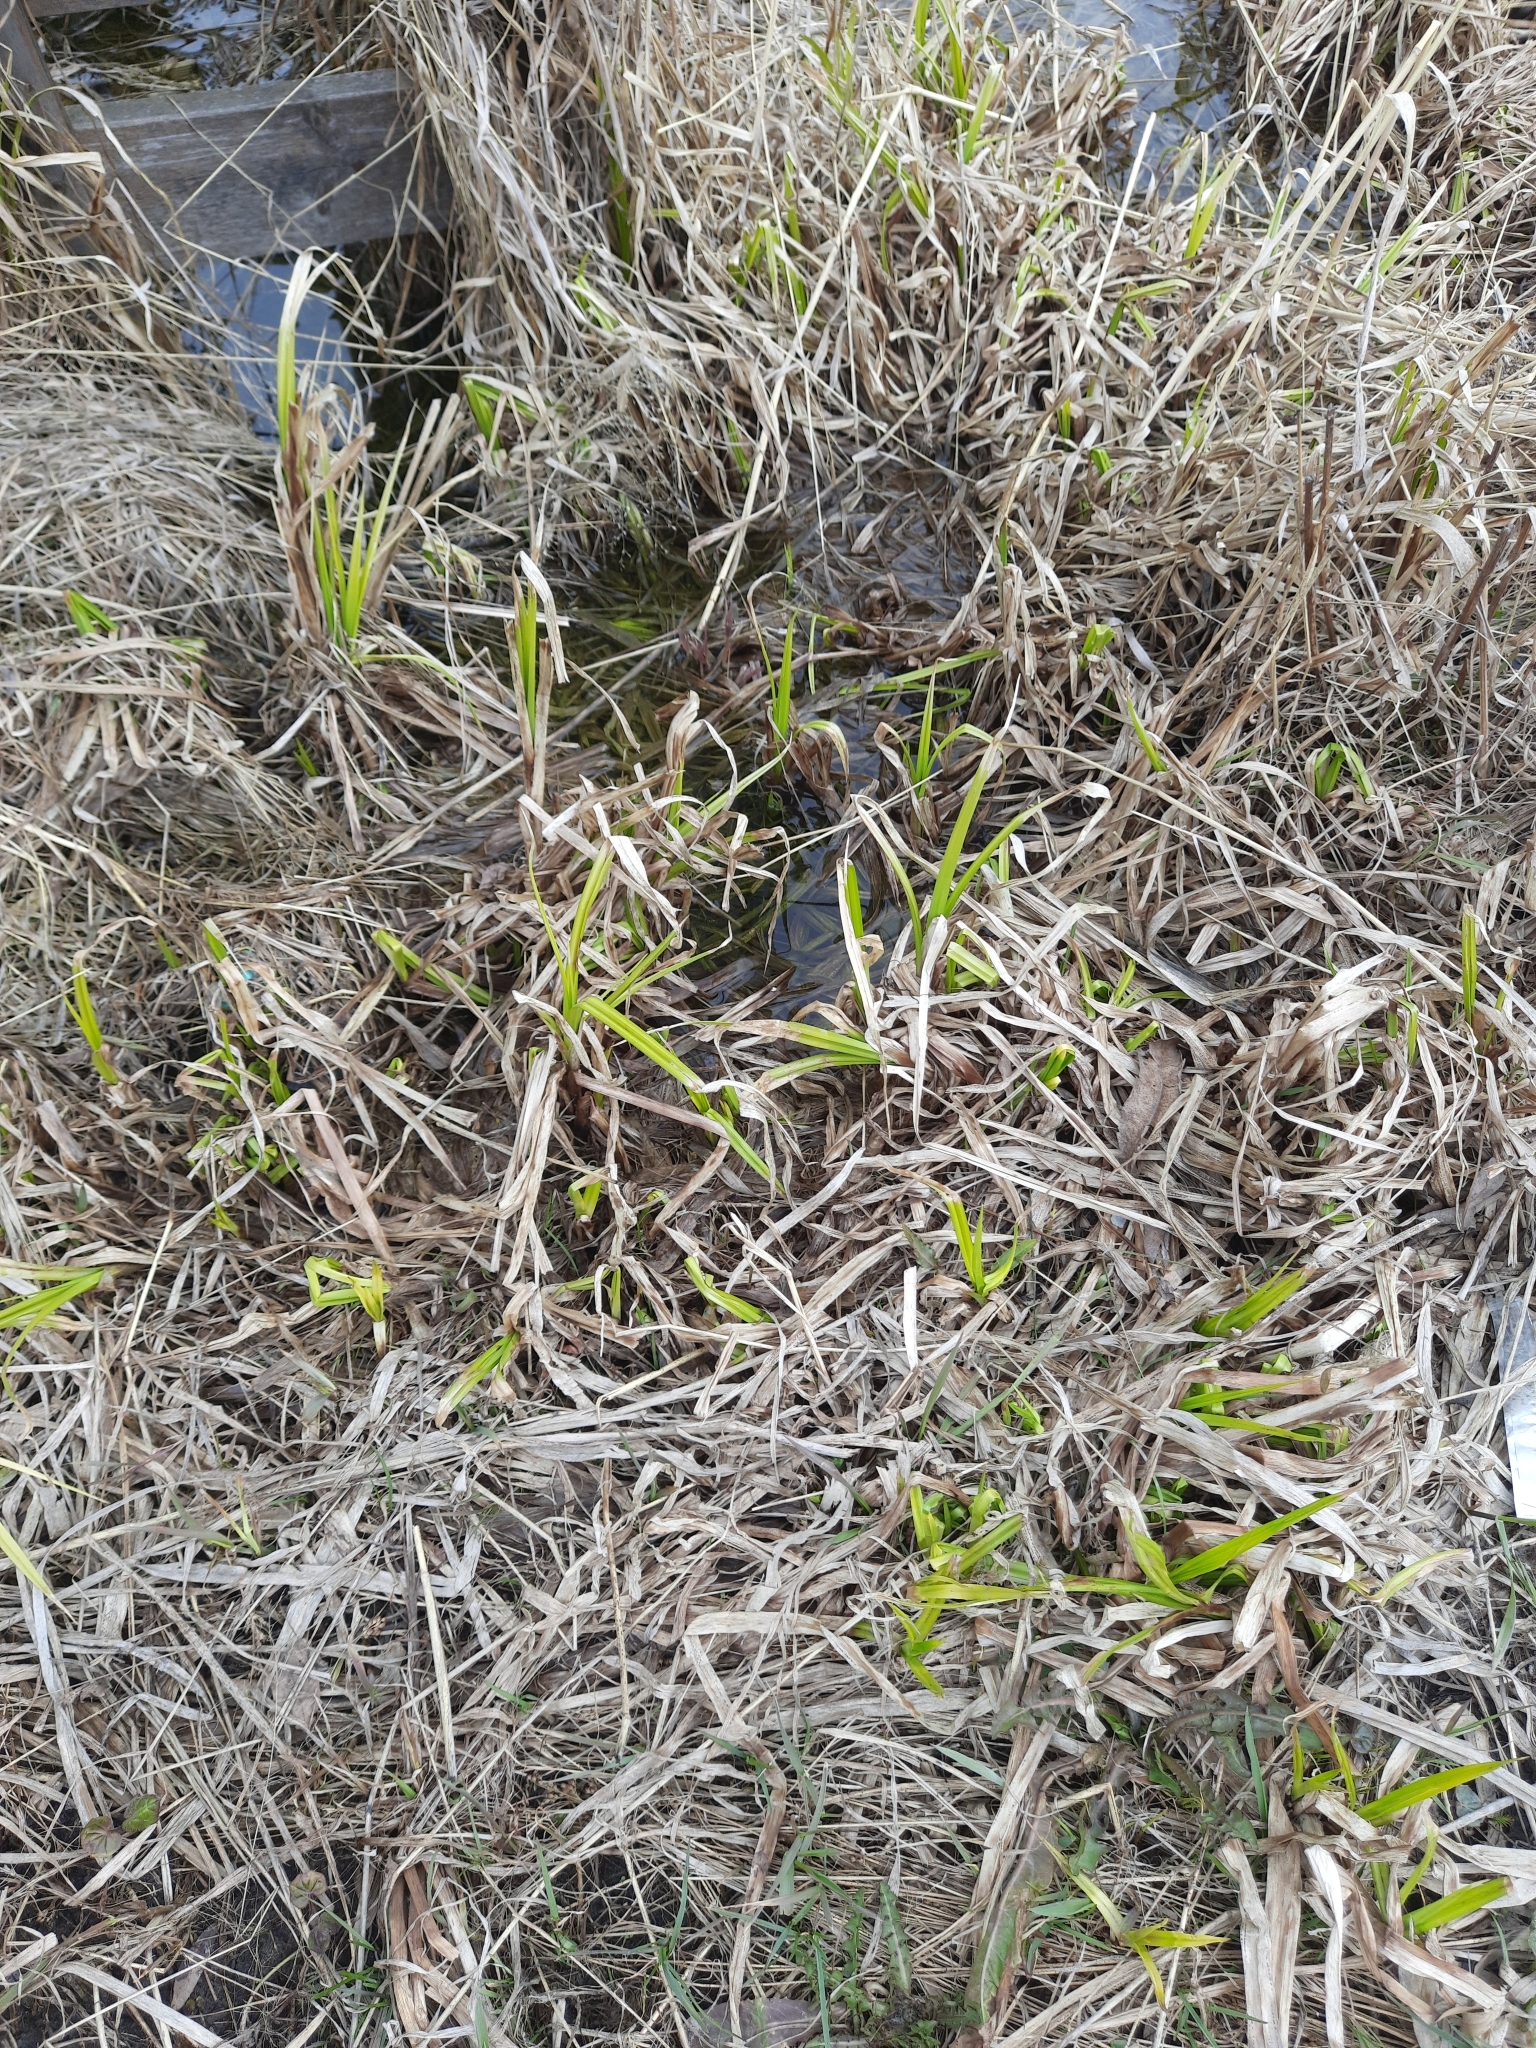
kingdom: Plantae
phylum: Tracheophyta
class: Liliopsida
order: Poales
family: Cyperaceae
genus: Scirpus
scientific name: Scirpus sylvaticus
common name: Wood club-rush
